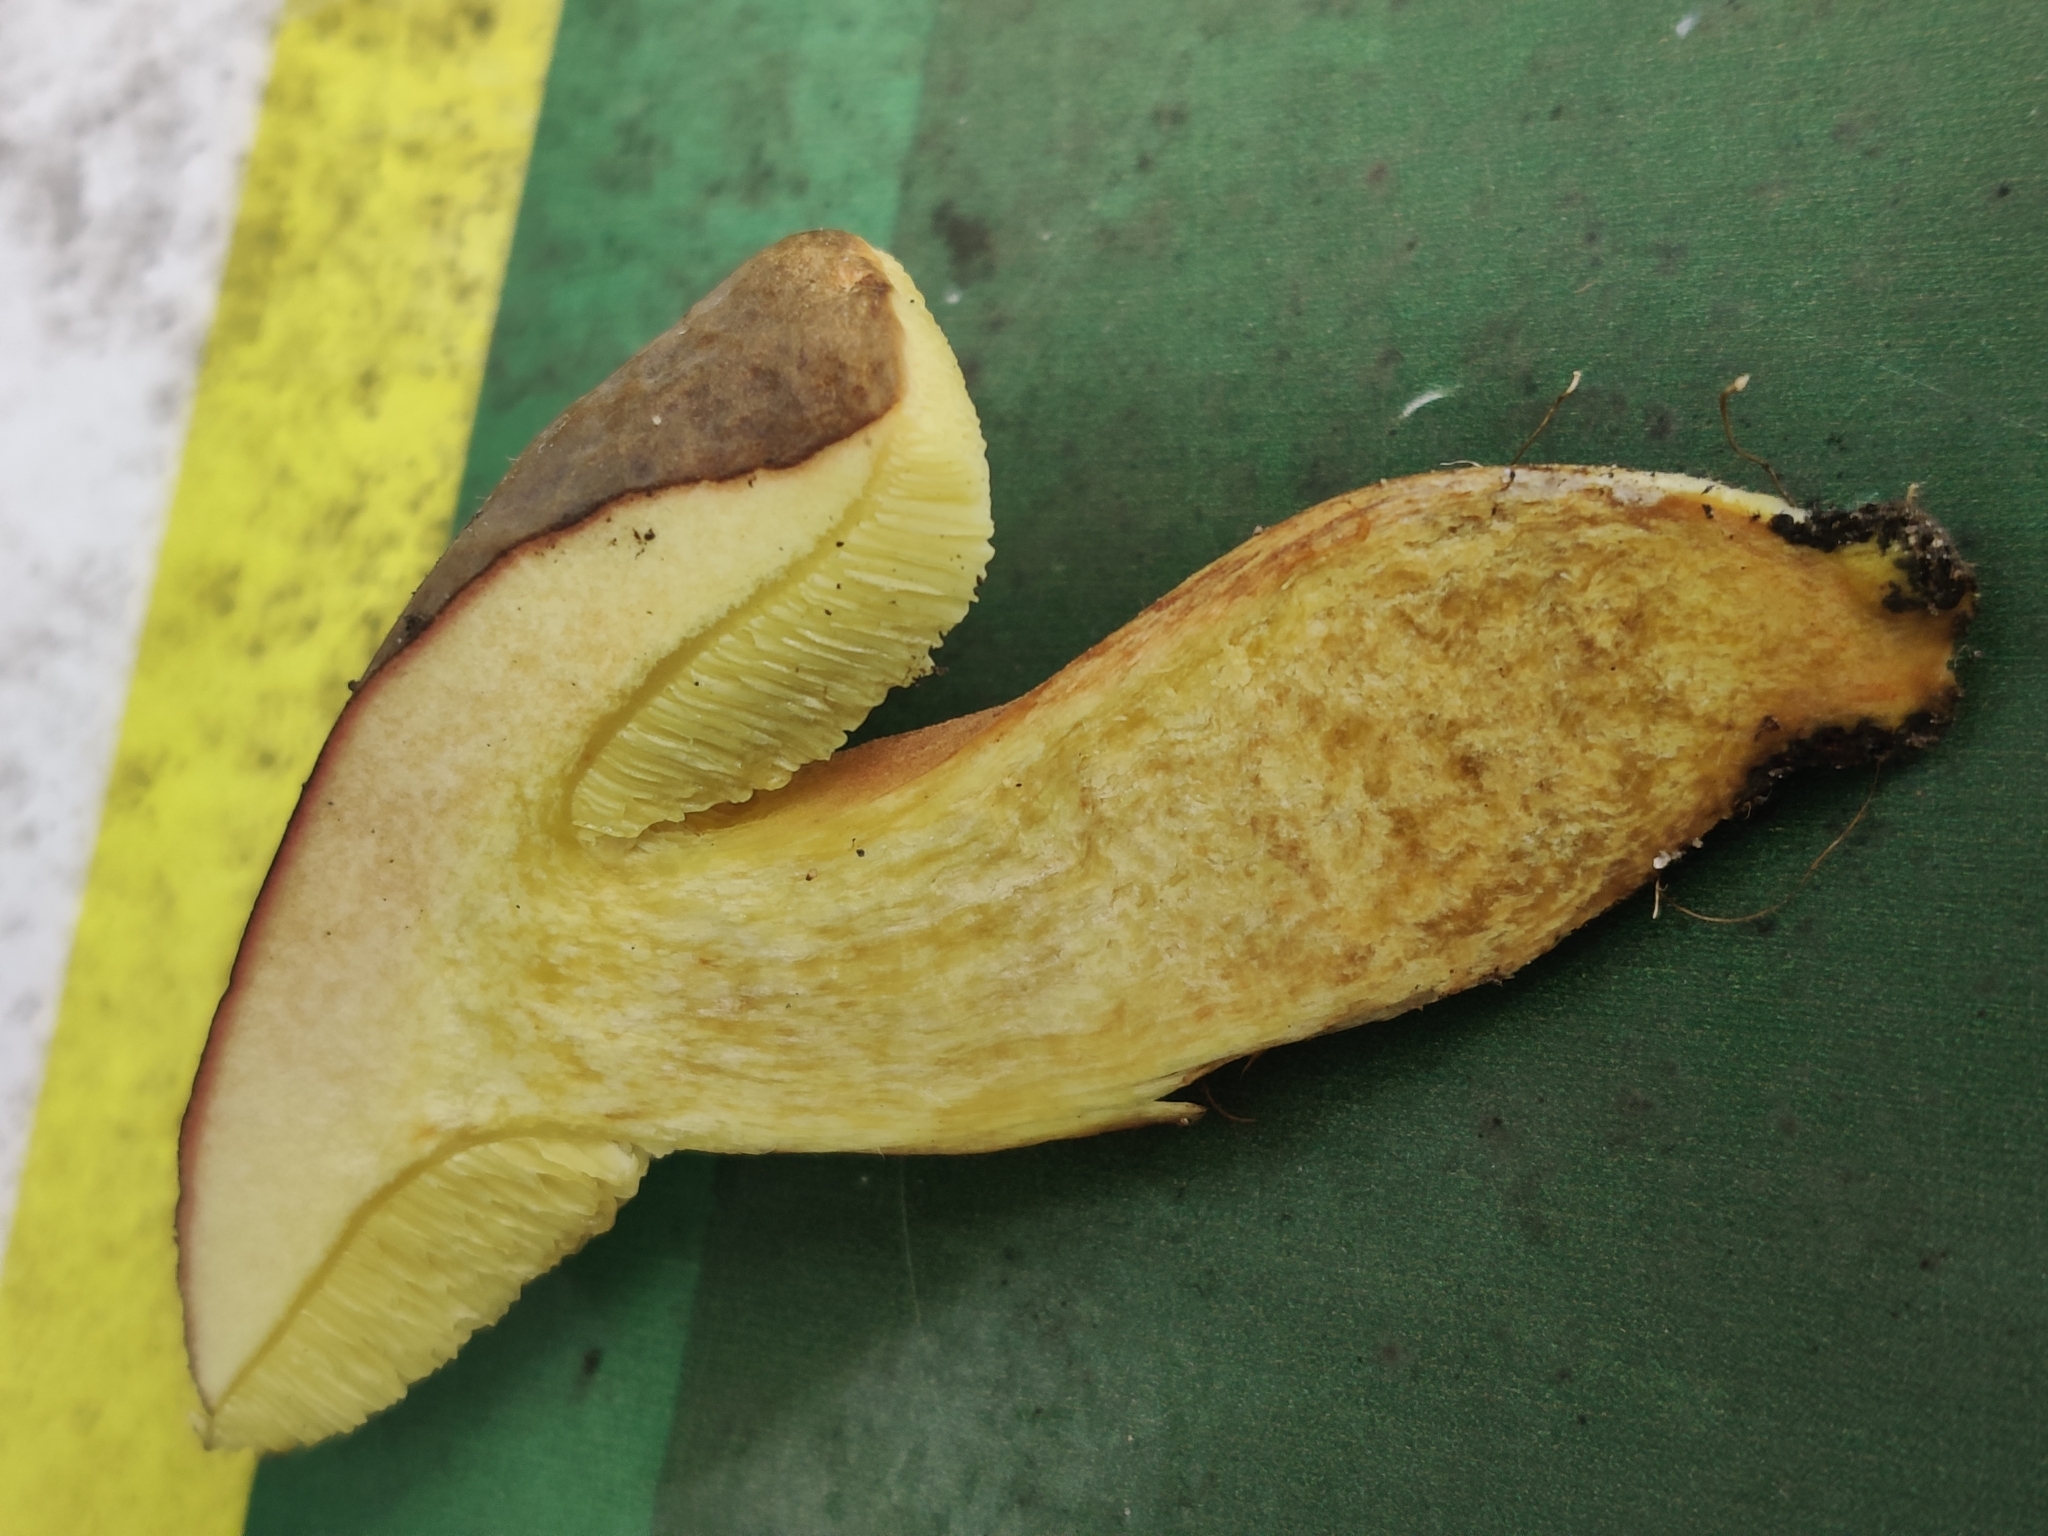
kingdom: Fungi
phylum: Basidiomycota
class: Agaricomycetes
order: Boletales
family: Boletaceae
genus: Hortiboletus
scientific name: Hortiboletus engelii
